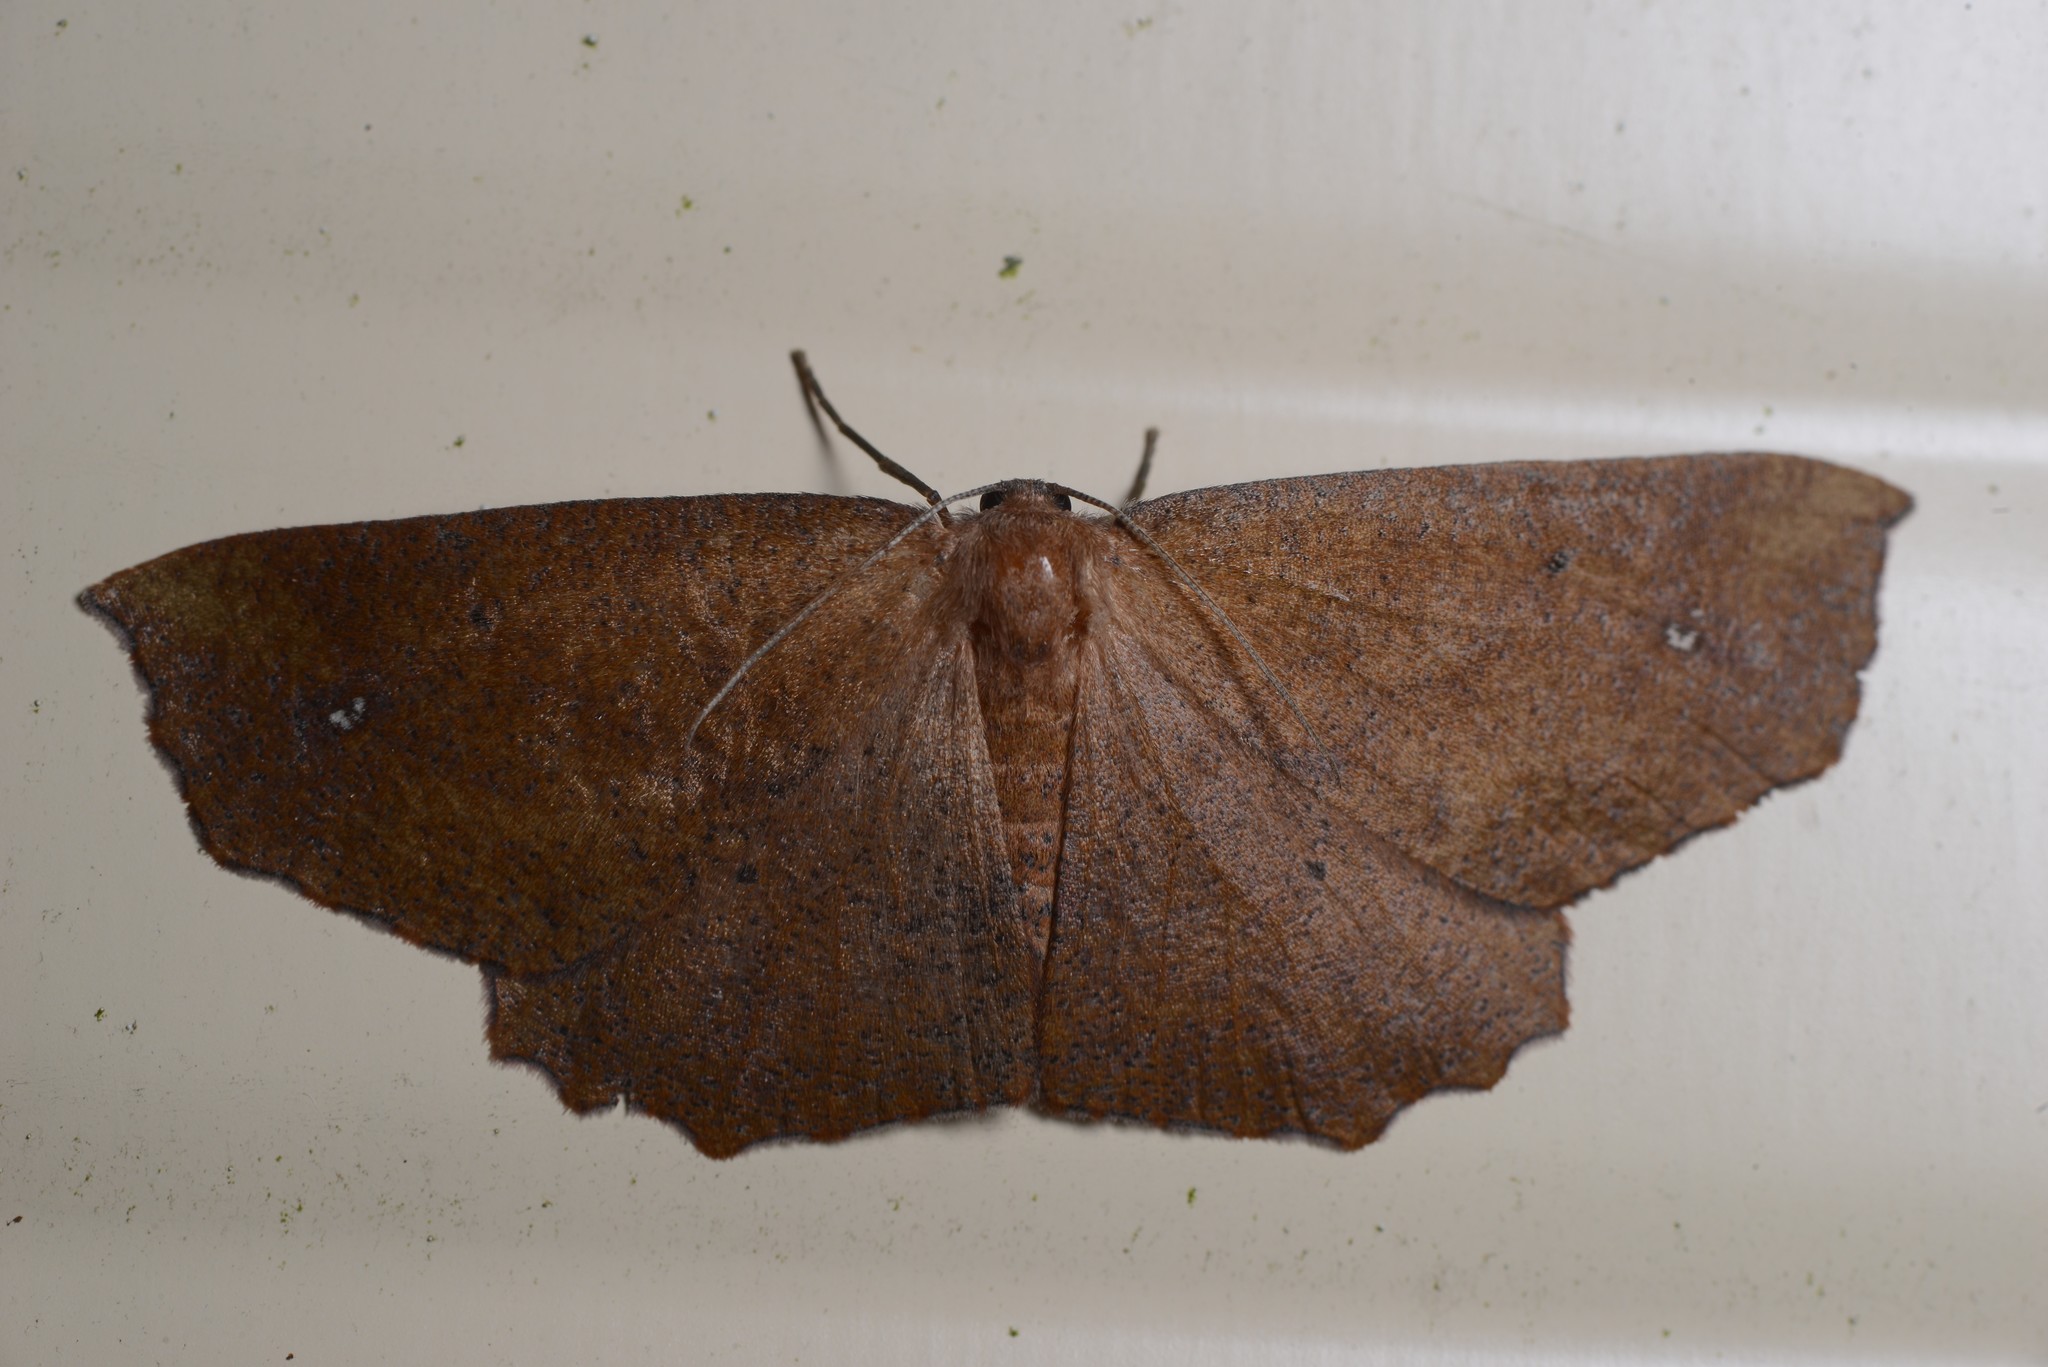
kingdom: Animalia
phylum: Arthropoda
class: Insecta
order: Lepidoptera
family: Geometridae
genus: Xyridacma
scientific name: Xyridacma ustaria
